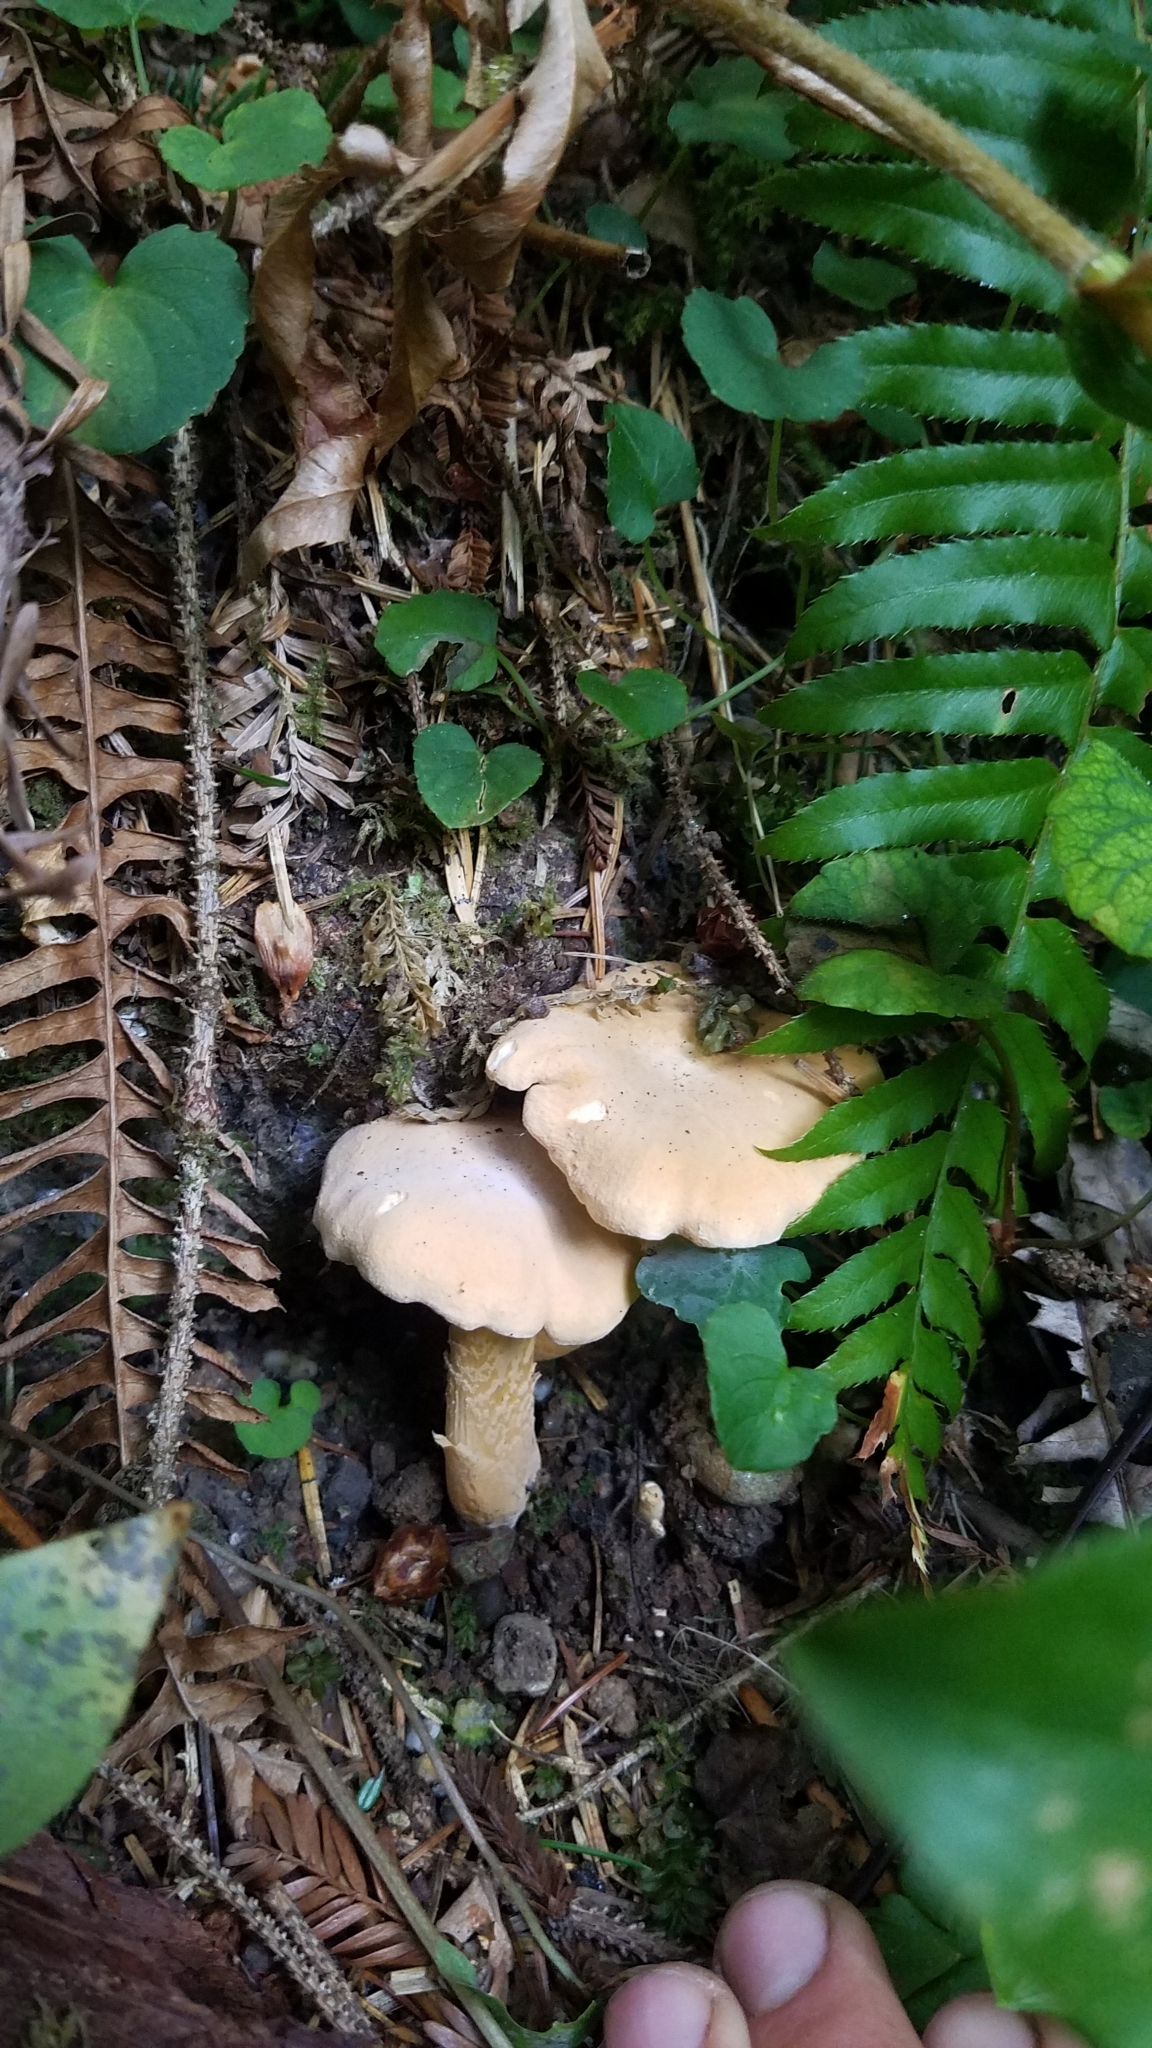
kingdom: Fungi
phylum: Basidiomycota
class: Agaricomycetes
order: Cantharellales
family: Hydnaceae
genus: Cantharellus
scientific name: Cantharellus roseocanus
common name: Rainbow chanterelle
